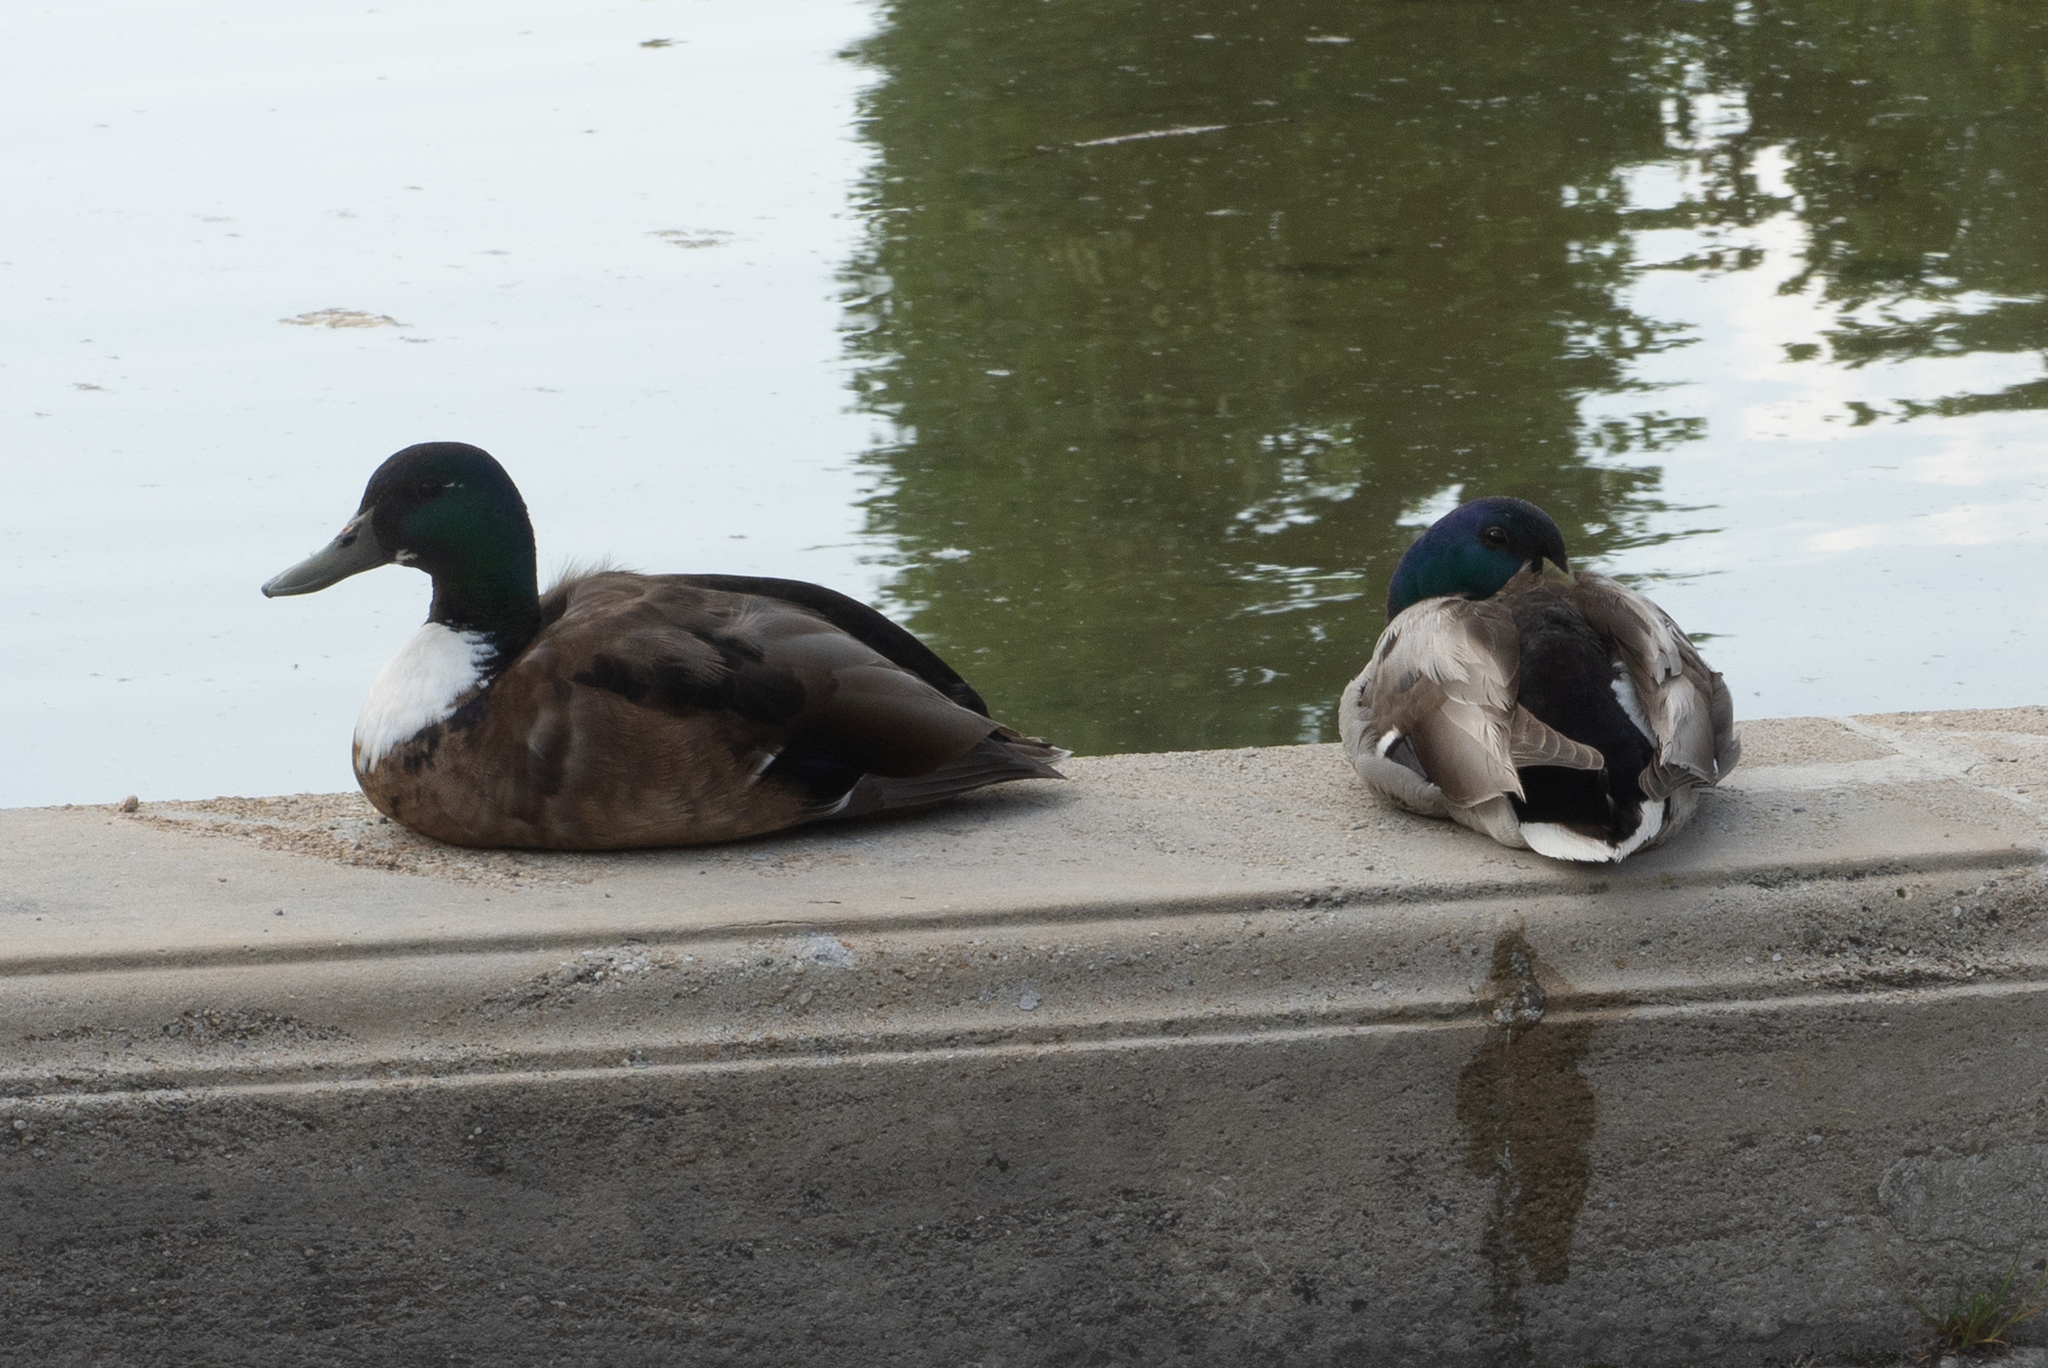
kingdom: Animalia
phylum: Chordata
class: Aves
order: Anseriformes
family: Anatidae
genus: Anas
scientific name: Anas platyrhynchos
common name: Mallard
